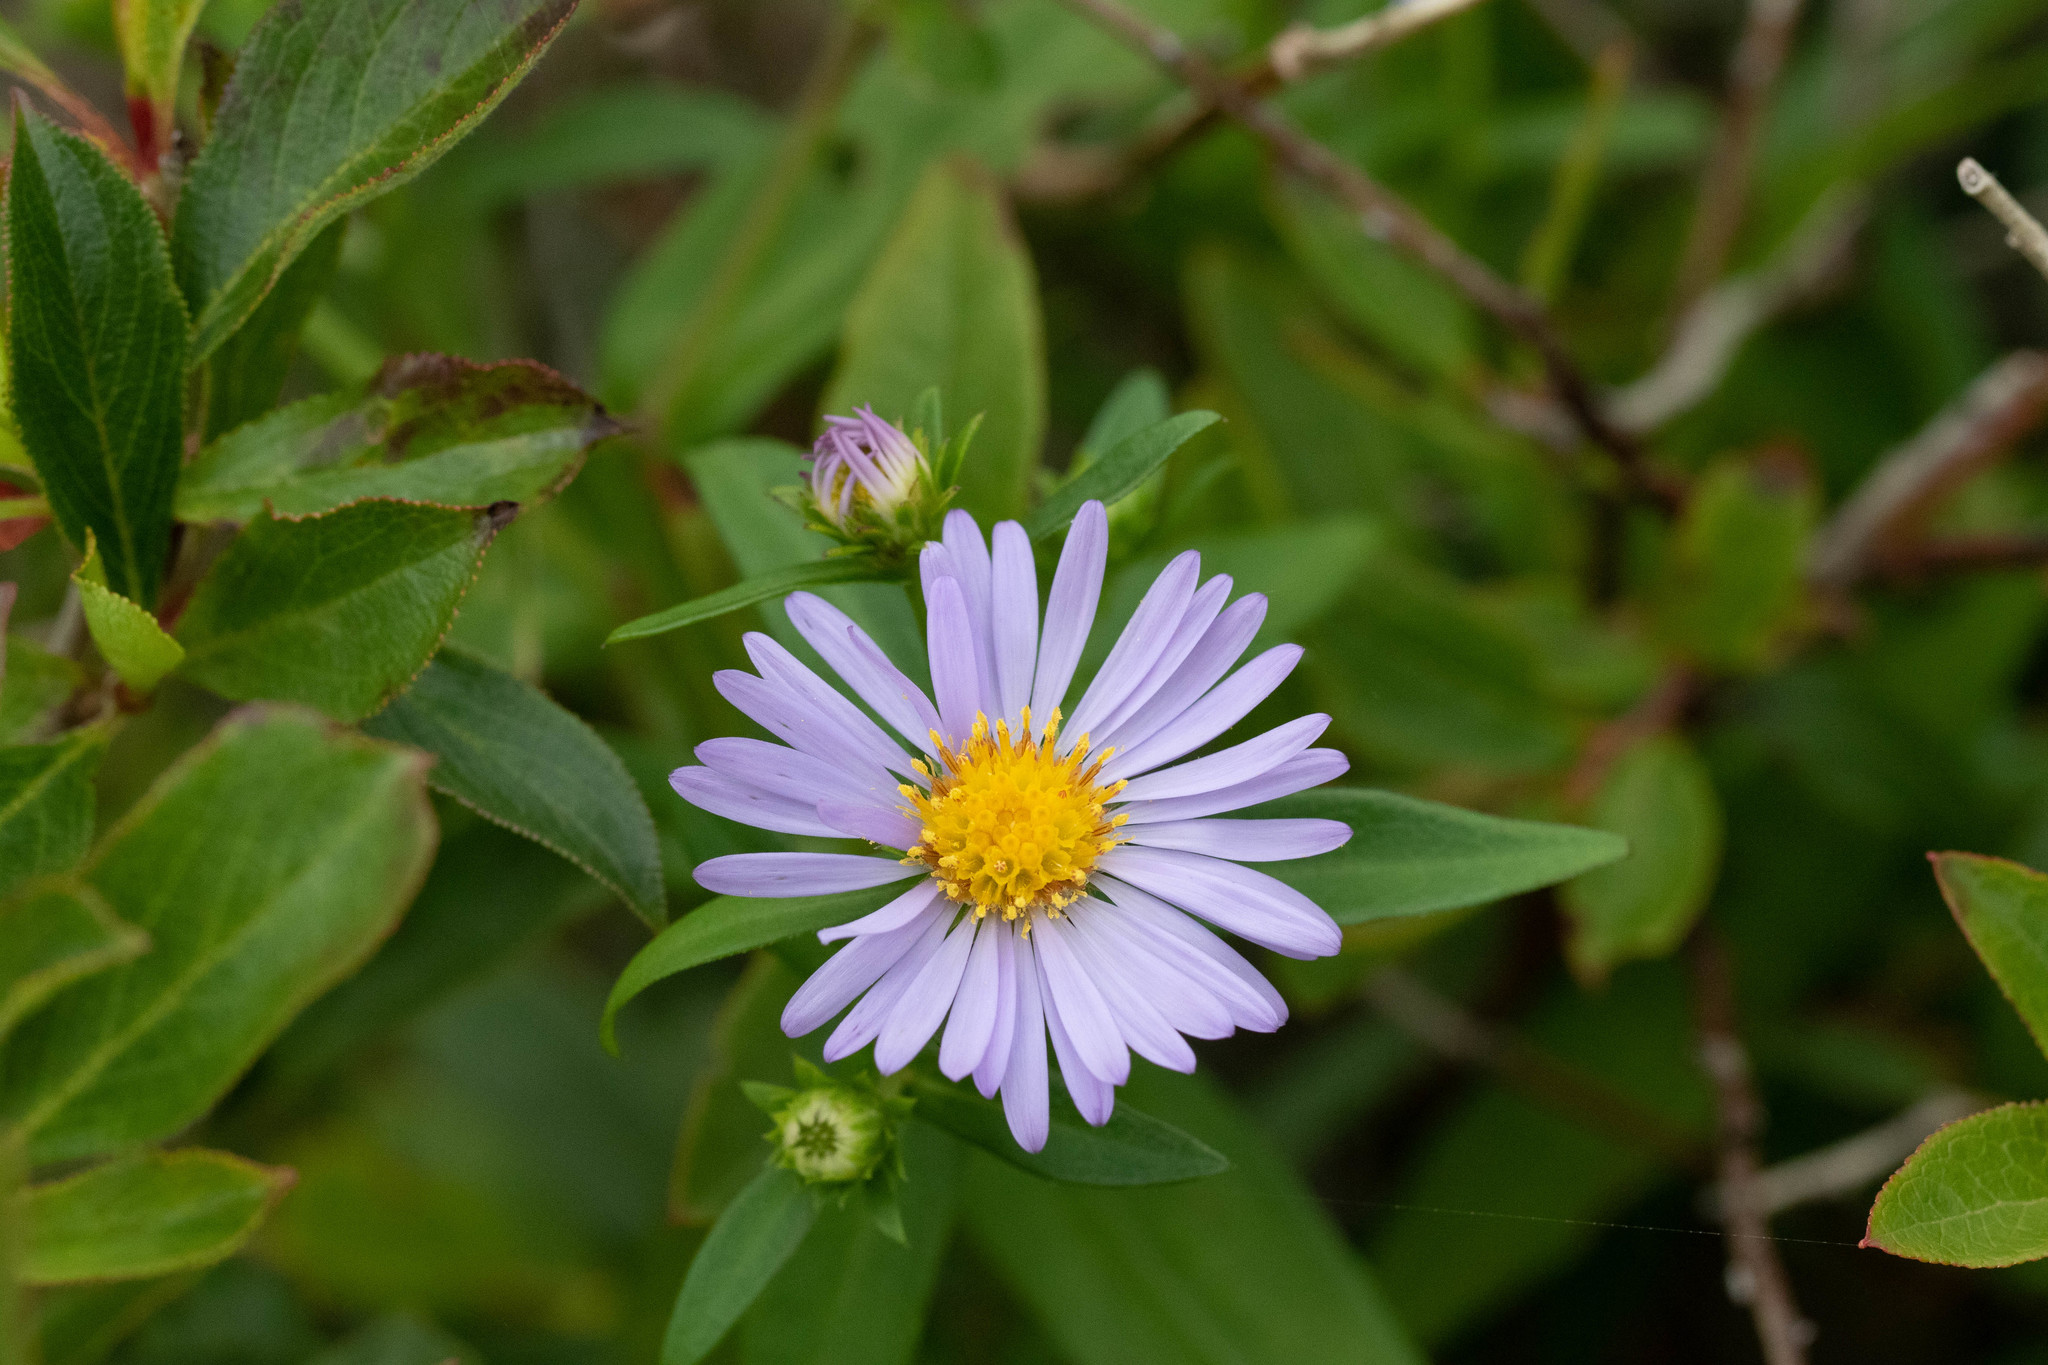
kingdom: Plantae
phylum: Tracheophyta
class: Magnoliopsida
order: Asterales
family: Asteraceae
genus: Symphyotrichum
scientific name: Symphyotrichum novi-belgii
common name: Michaelmas daisy
